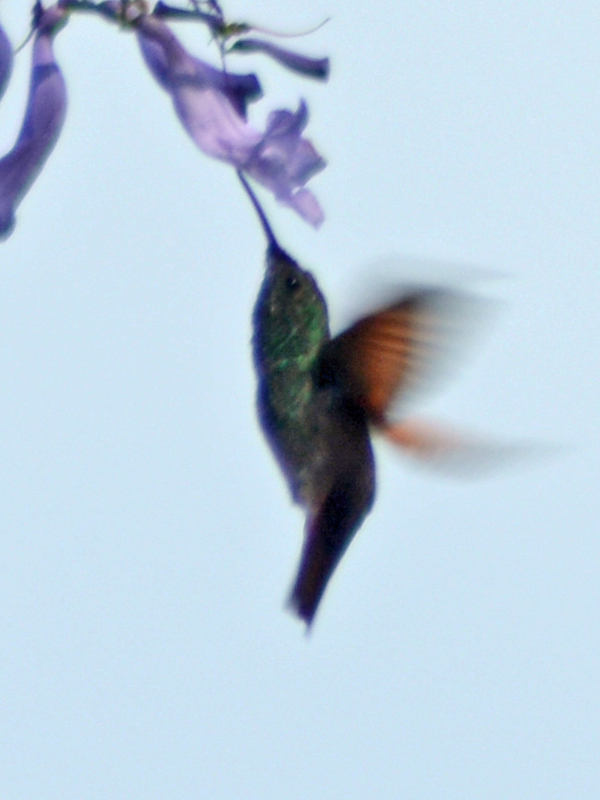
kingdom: Animalia
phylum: Chordata
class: Aves
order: Apodiformes
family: Trochilidae
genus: Saucerottia
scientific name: Saucerottia beryllina
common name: Berylline hummingbird
